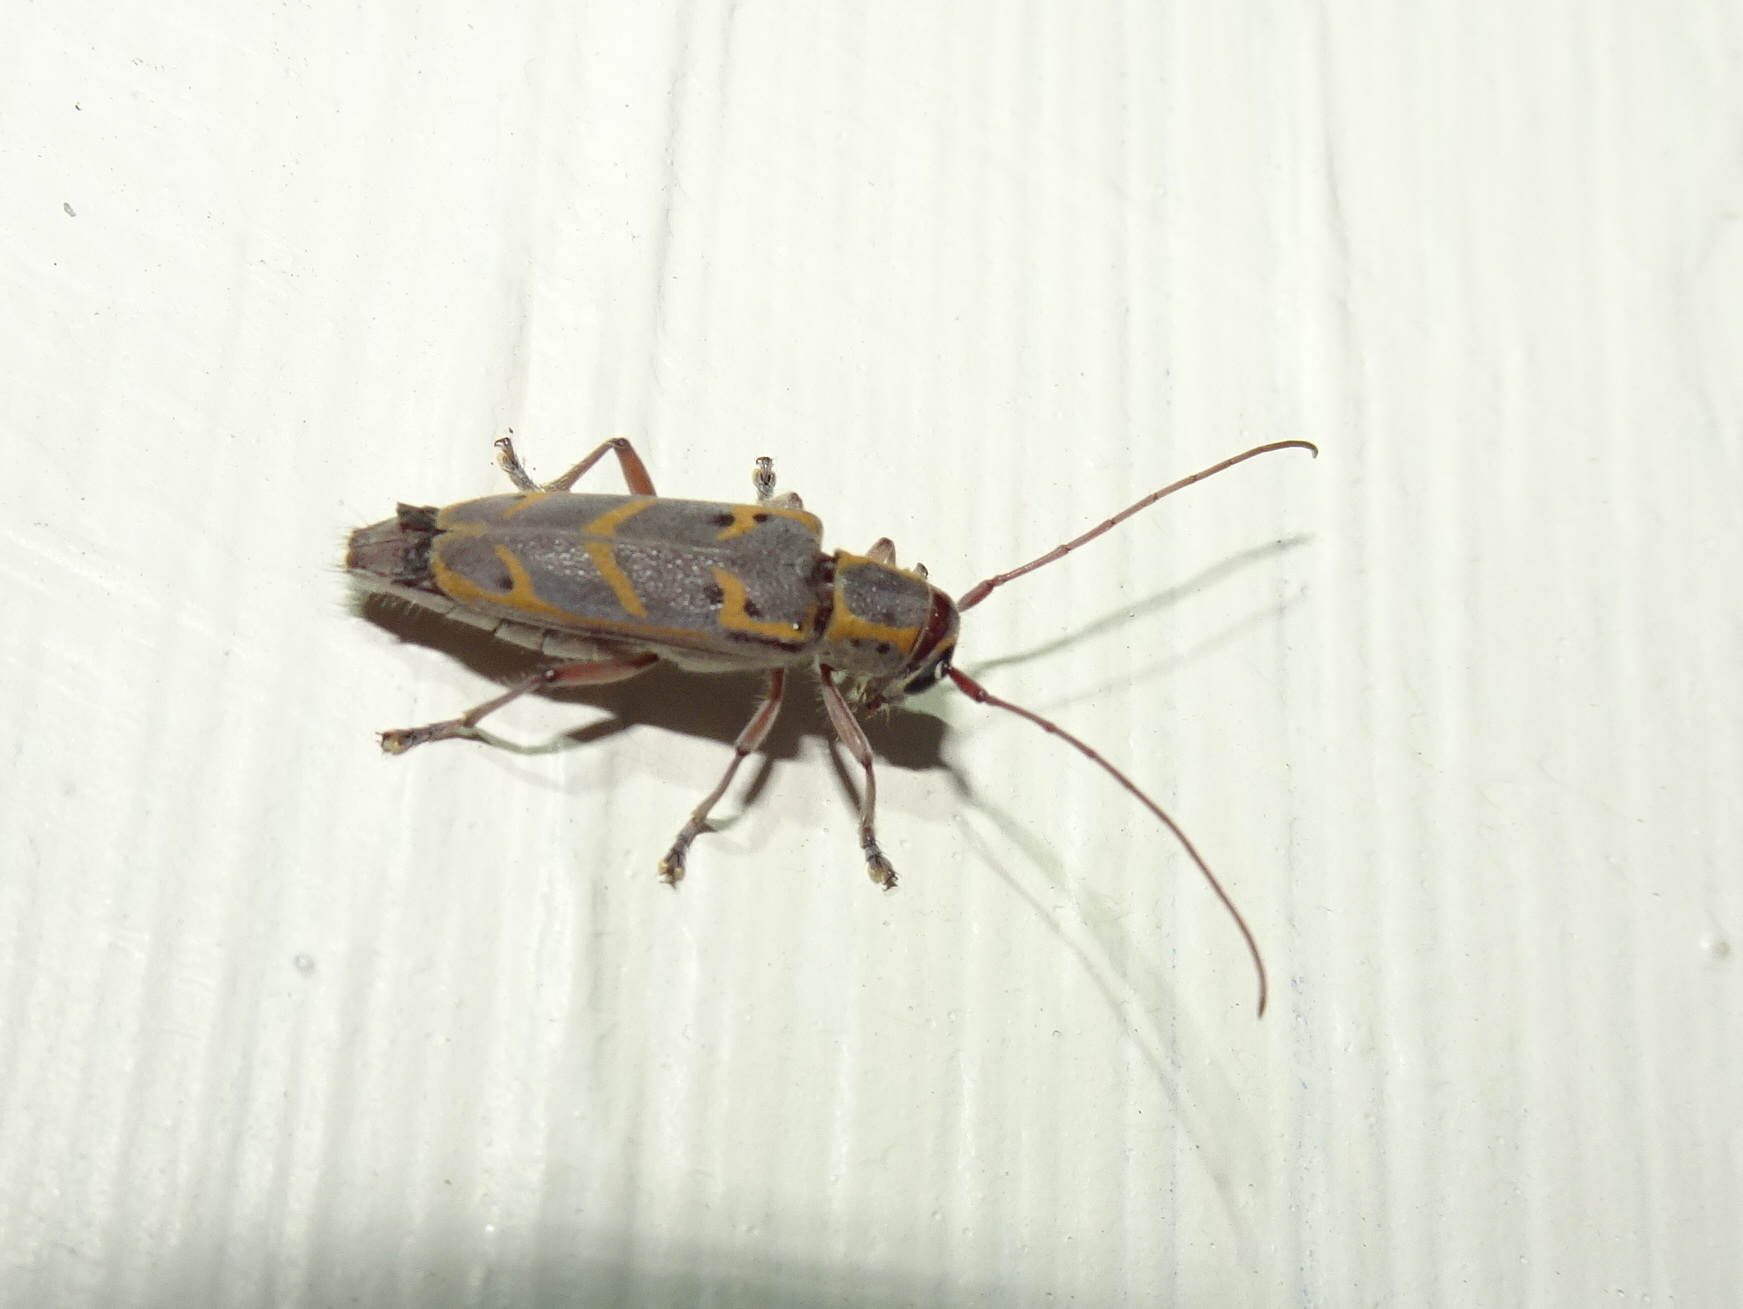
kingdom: Animalia
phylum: Arthropoda
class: Insecta
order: Coleoptera
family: Cerambycidae
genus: Saperda
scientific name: Saperda tridentata
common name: Elm borer
